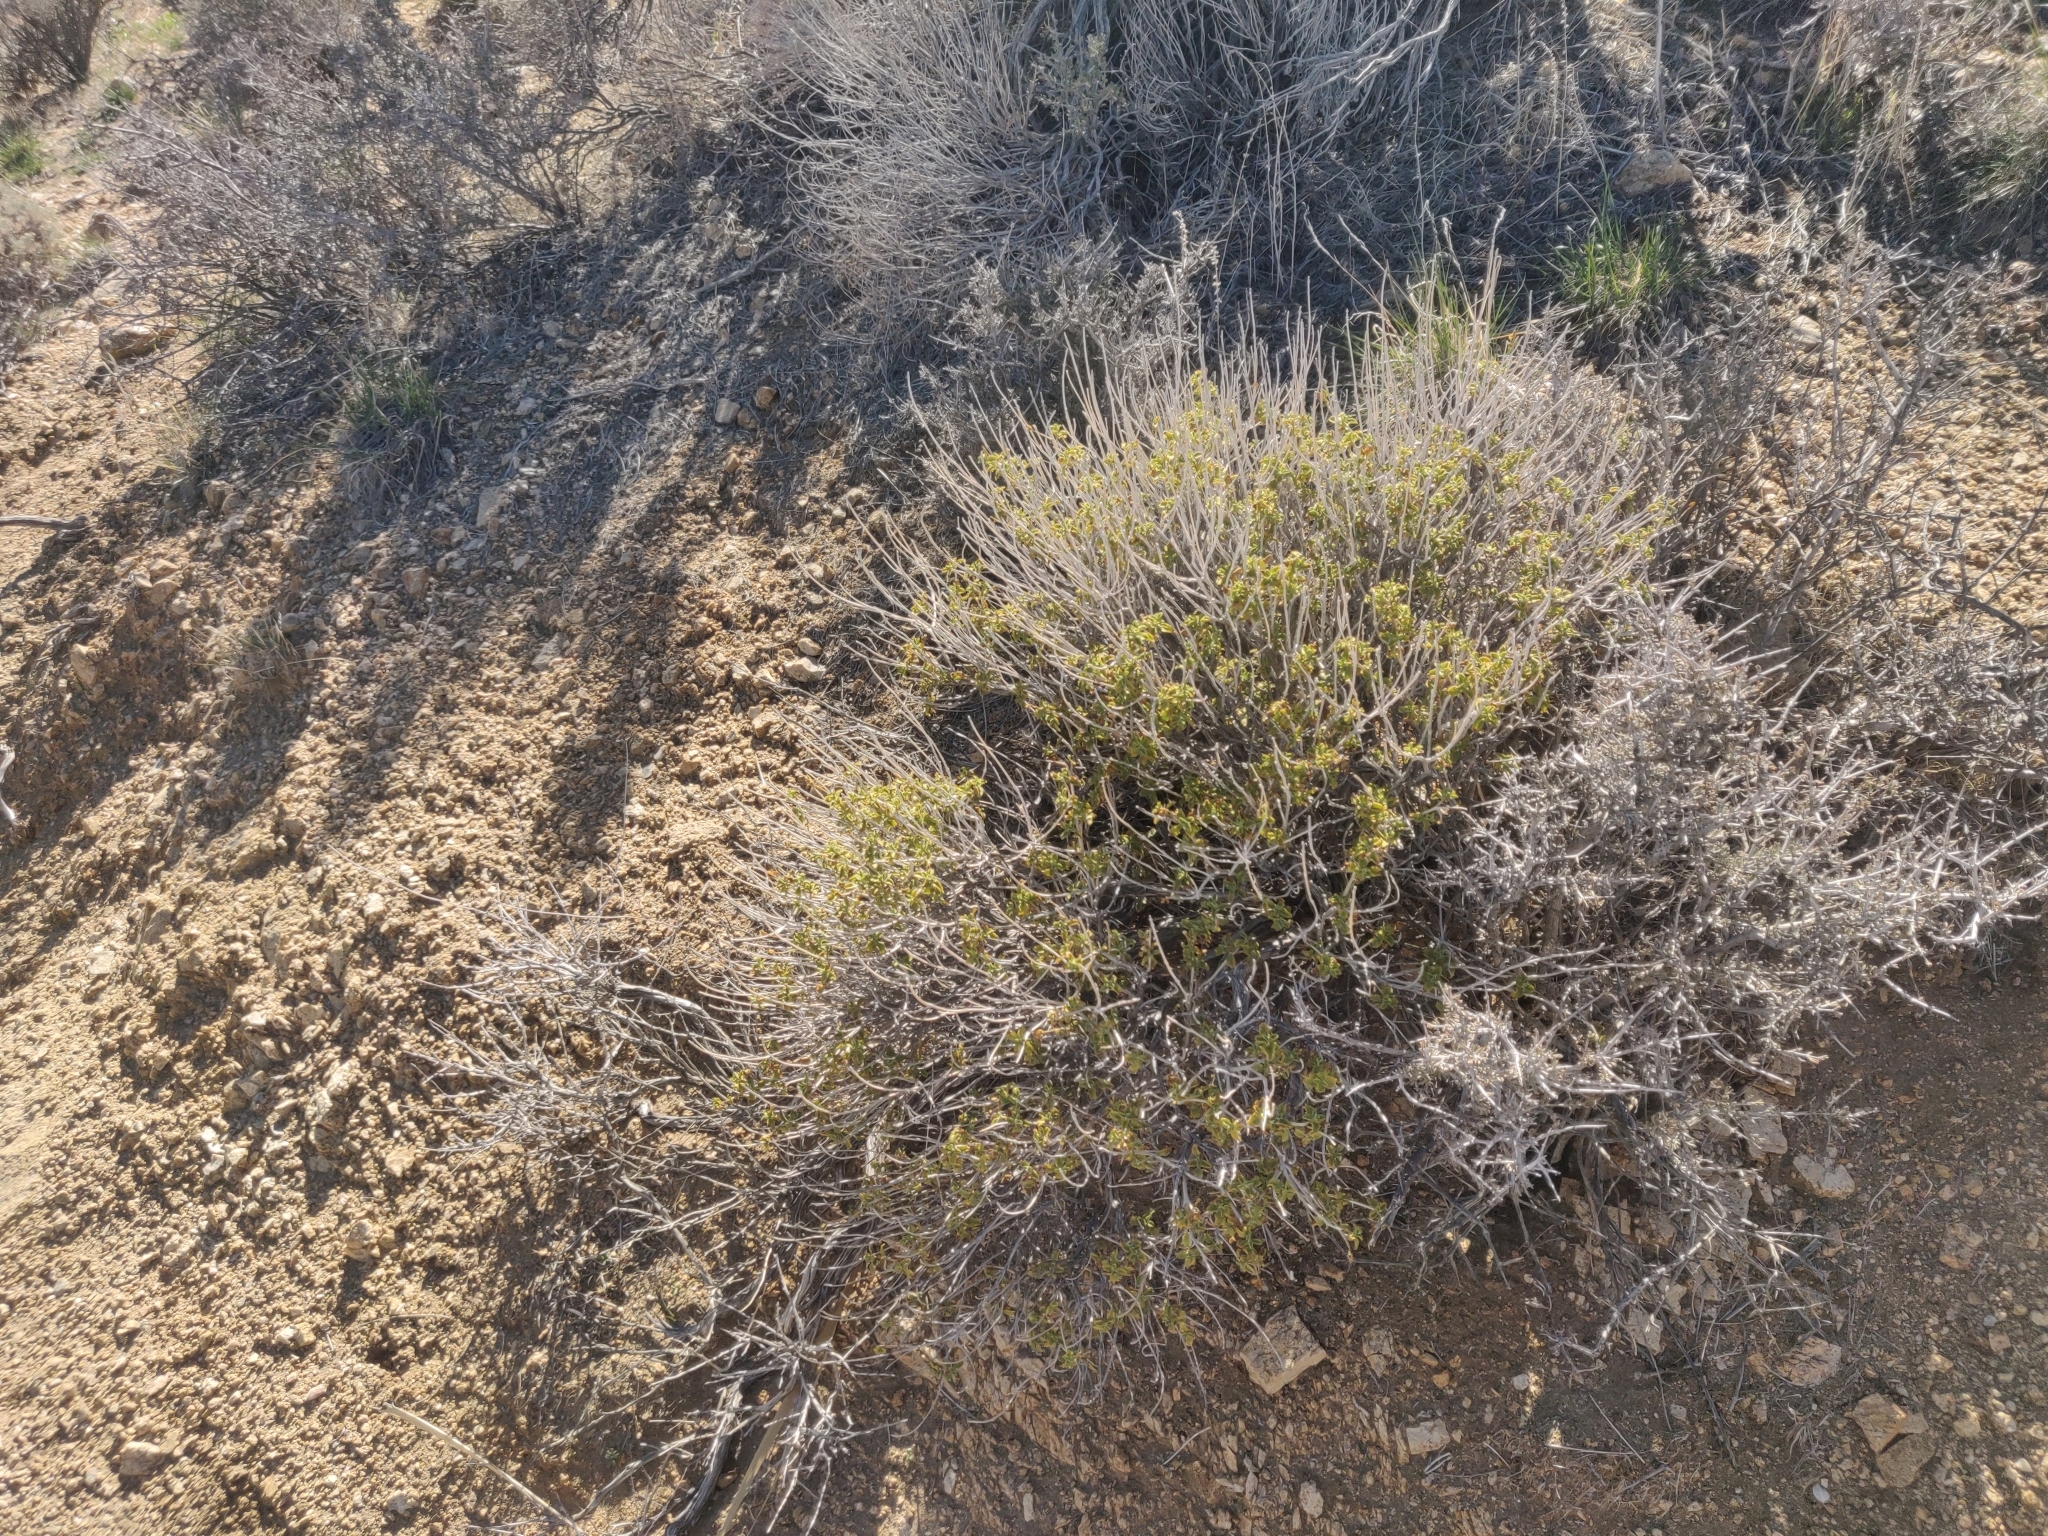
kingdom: Plantae
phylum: Tracheophyta
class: Magnoliopsida
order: Lamiales
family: Lamiaceae
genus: Salvia
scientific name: Salvia mohavensis
